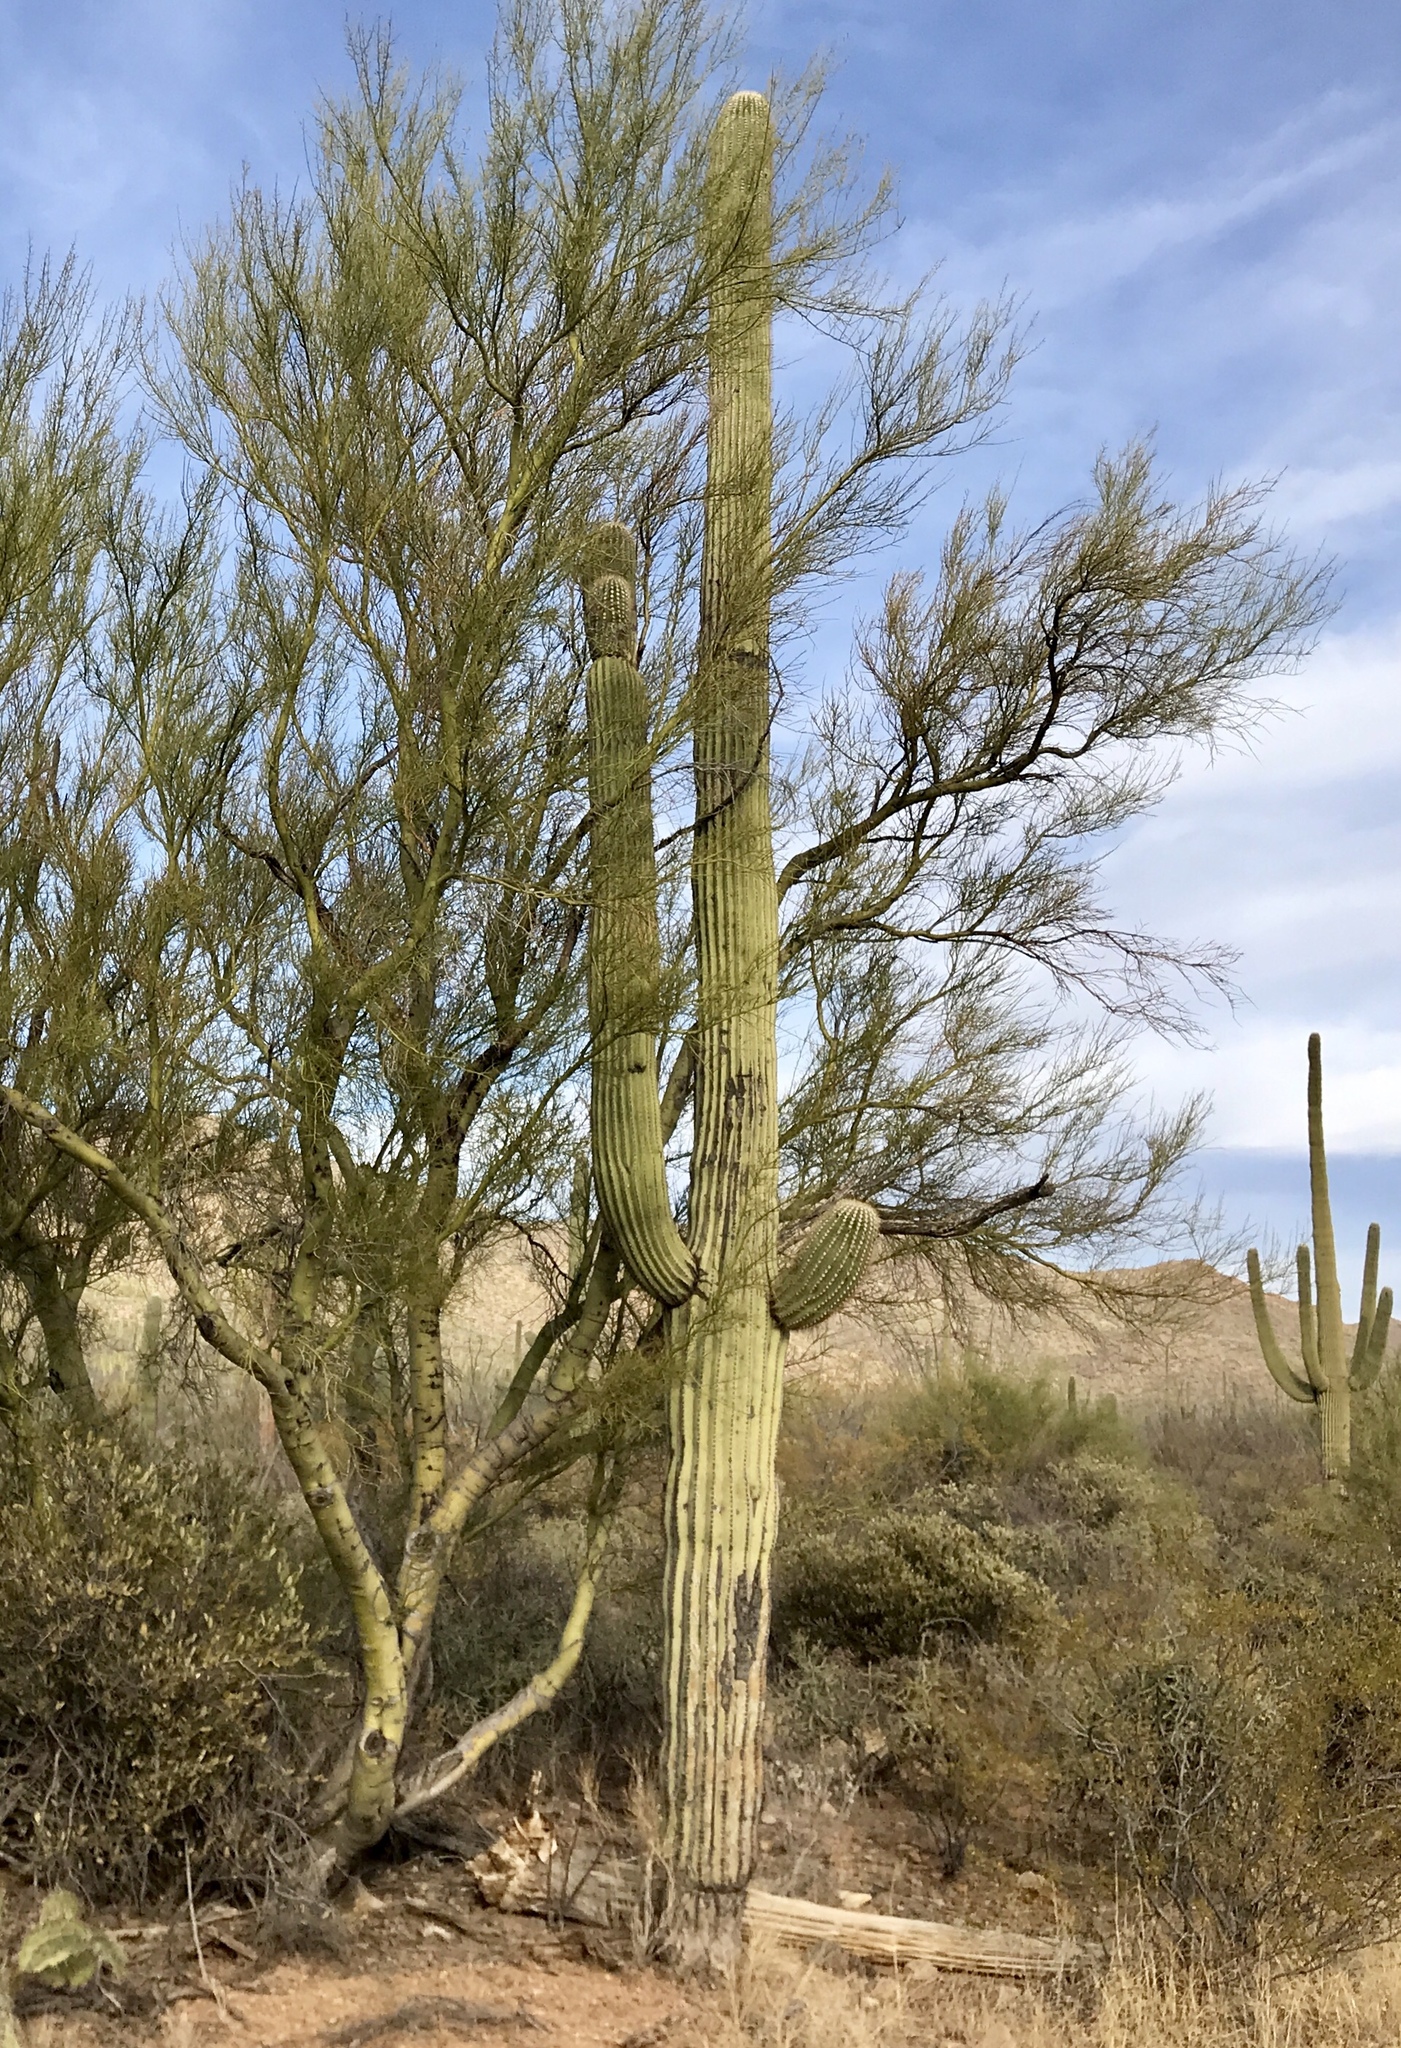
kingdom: Plantae
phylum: Tracheophyta
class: Magnoliopsida
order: Caryophyllales
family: Cactaceae
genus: Carnegiea
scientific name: Carnegiea gigantea
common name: Saguaro
